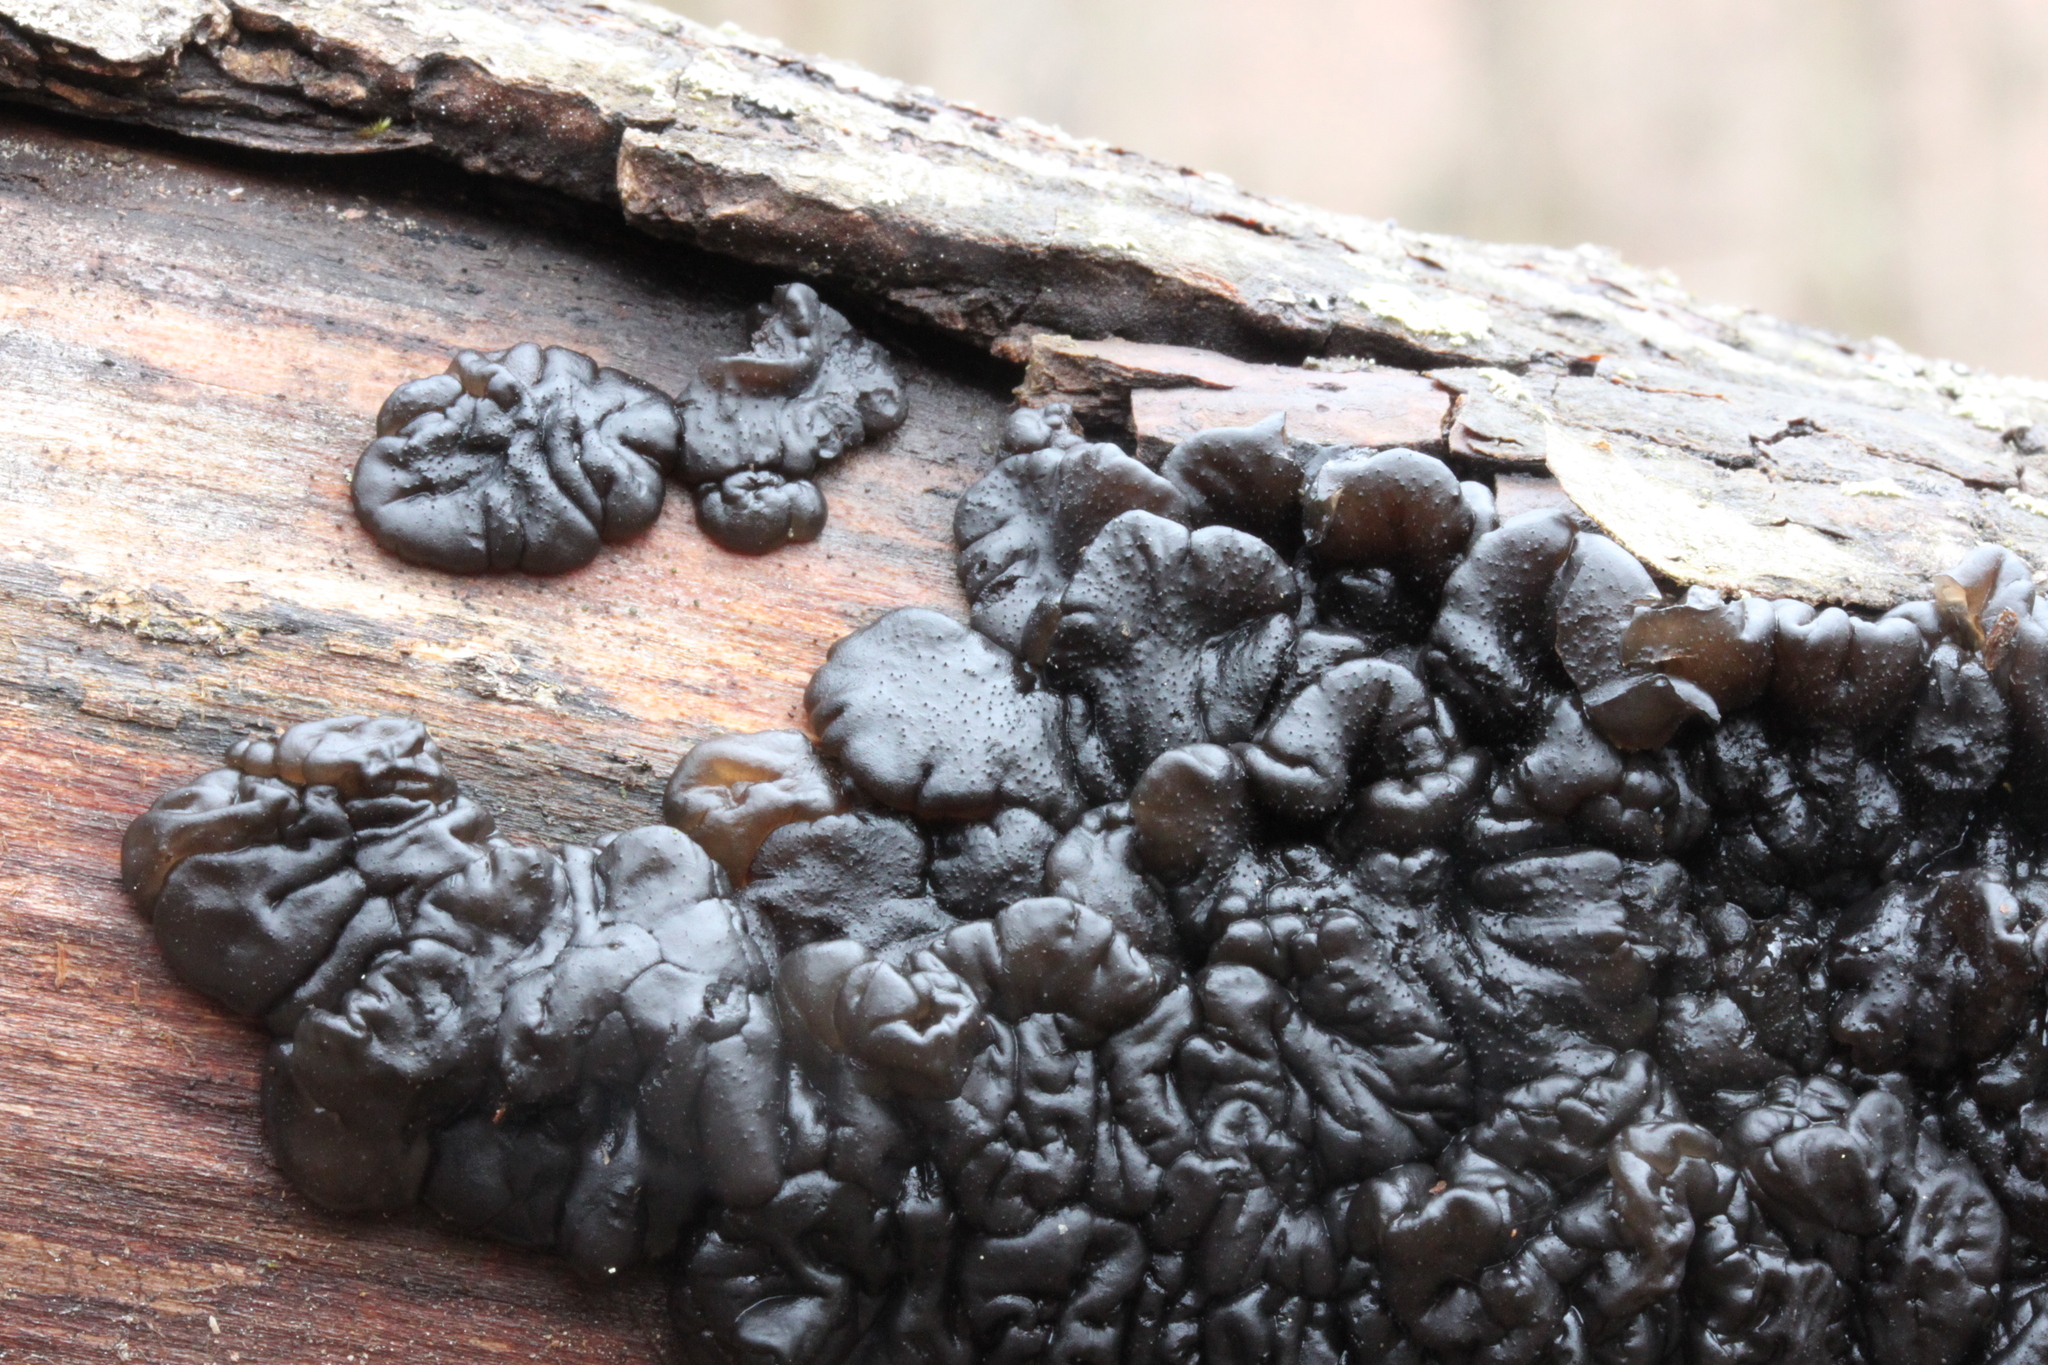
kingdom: Fungi
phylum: Basidiomycota
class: Agaricomycetes
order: Auriculariales
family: Auriculariaceae
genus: Exidia
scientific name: Exidia glandulosa
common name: Witches' butter
